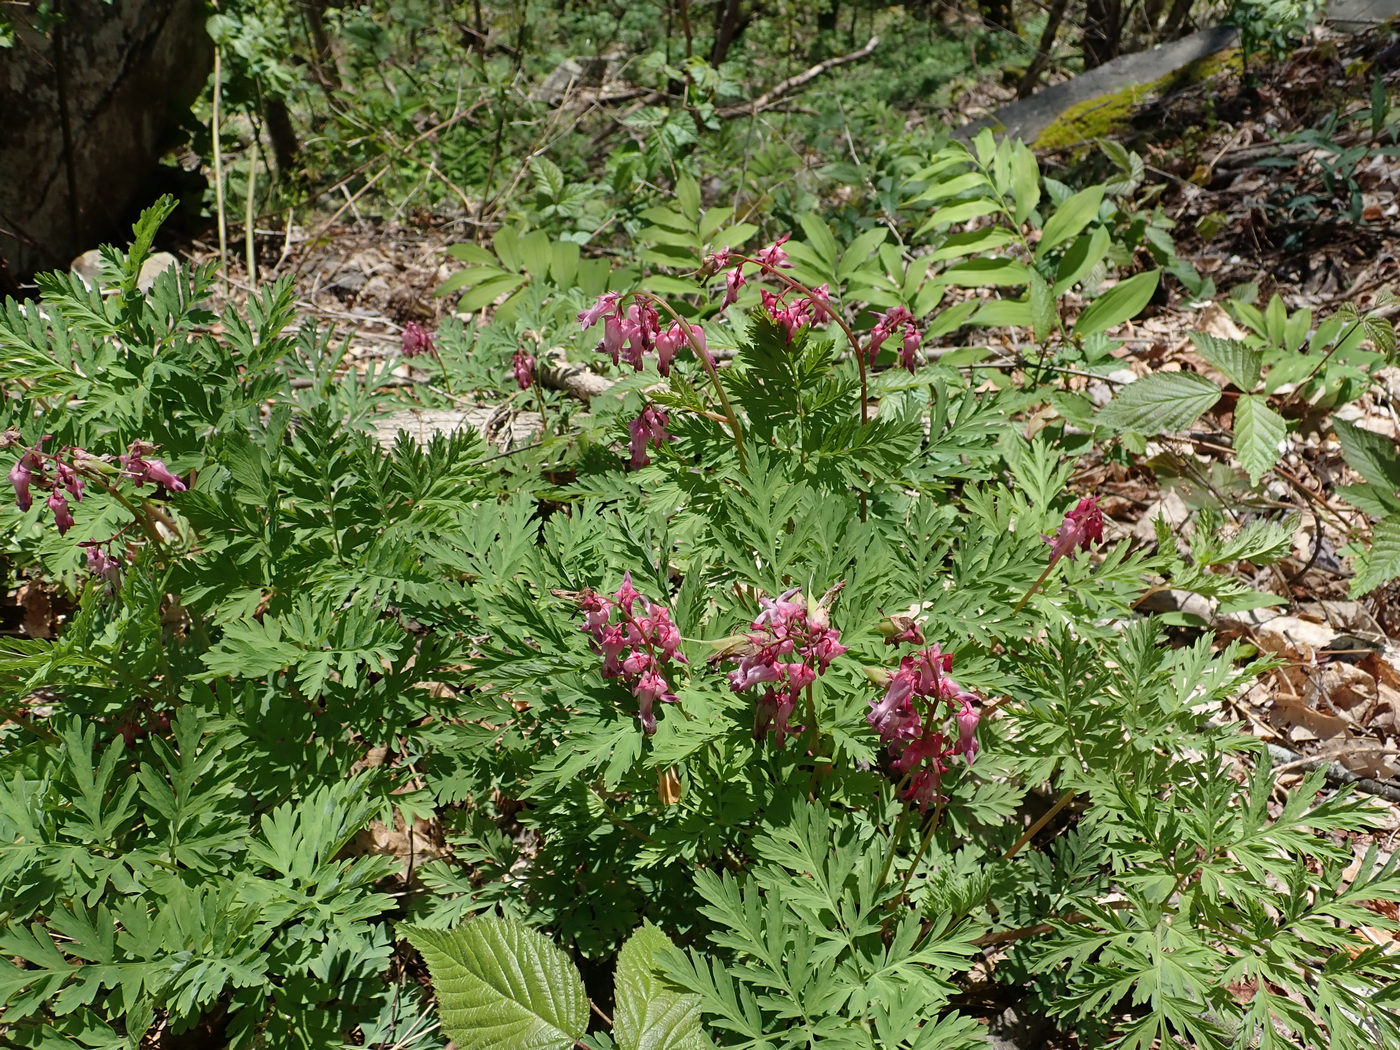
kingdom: Plantae
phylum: Tracheophyta
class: Magnoliopsida
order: Ranunculales
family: Papaveraceae
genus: Dicentra
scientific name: Dicentra eximia
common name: Turkey-corn
